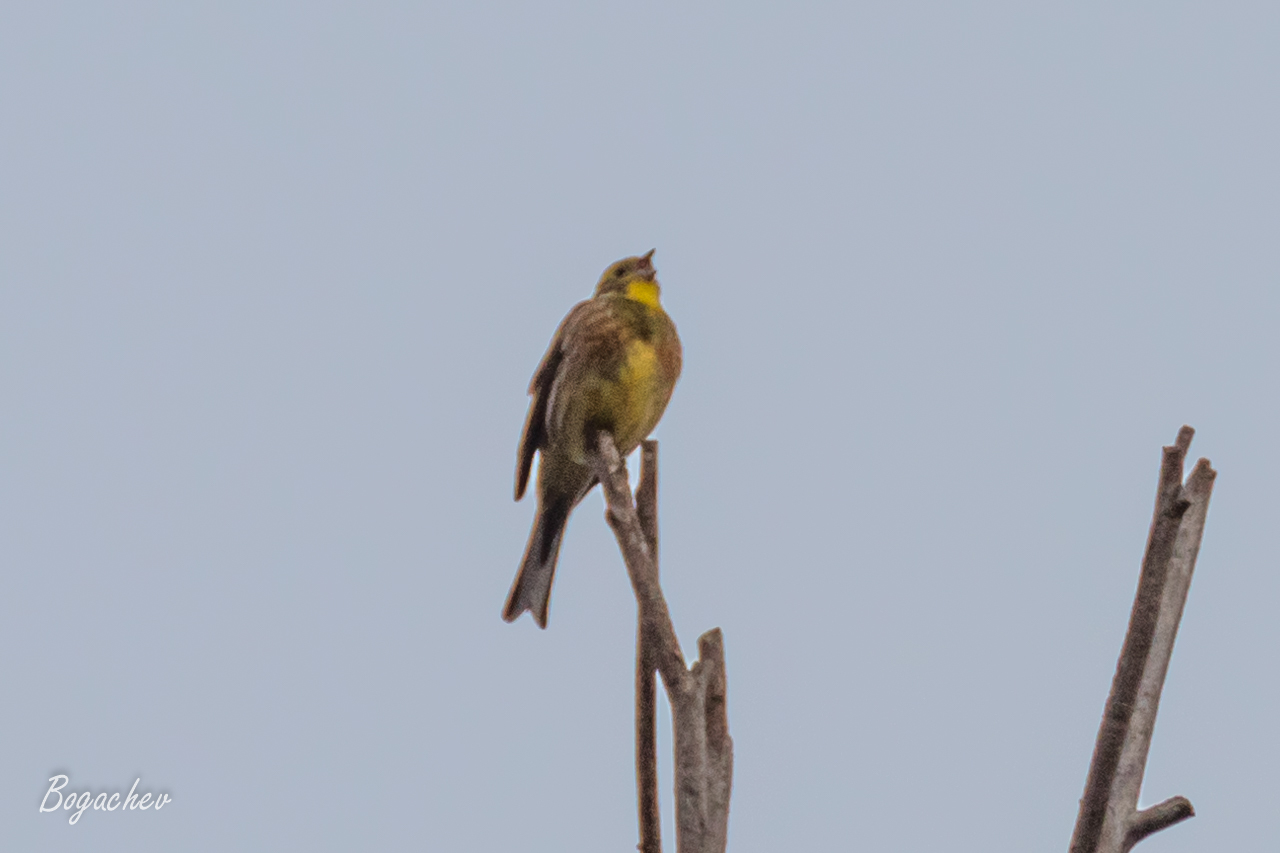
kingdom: Animalia
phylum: Chordata
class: Aves
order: Passeriformes
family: Emberizidae
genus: Emberiza
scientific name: Emberiza citrinella
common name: Yellowhammer
